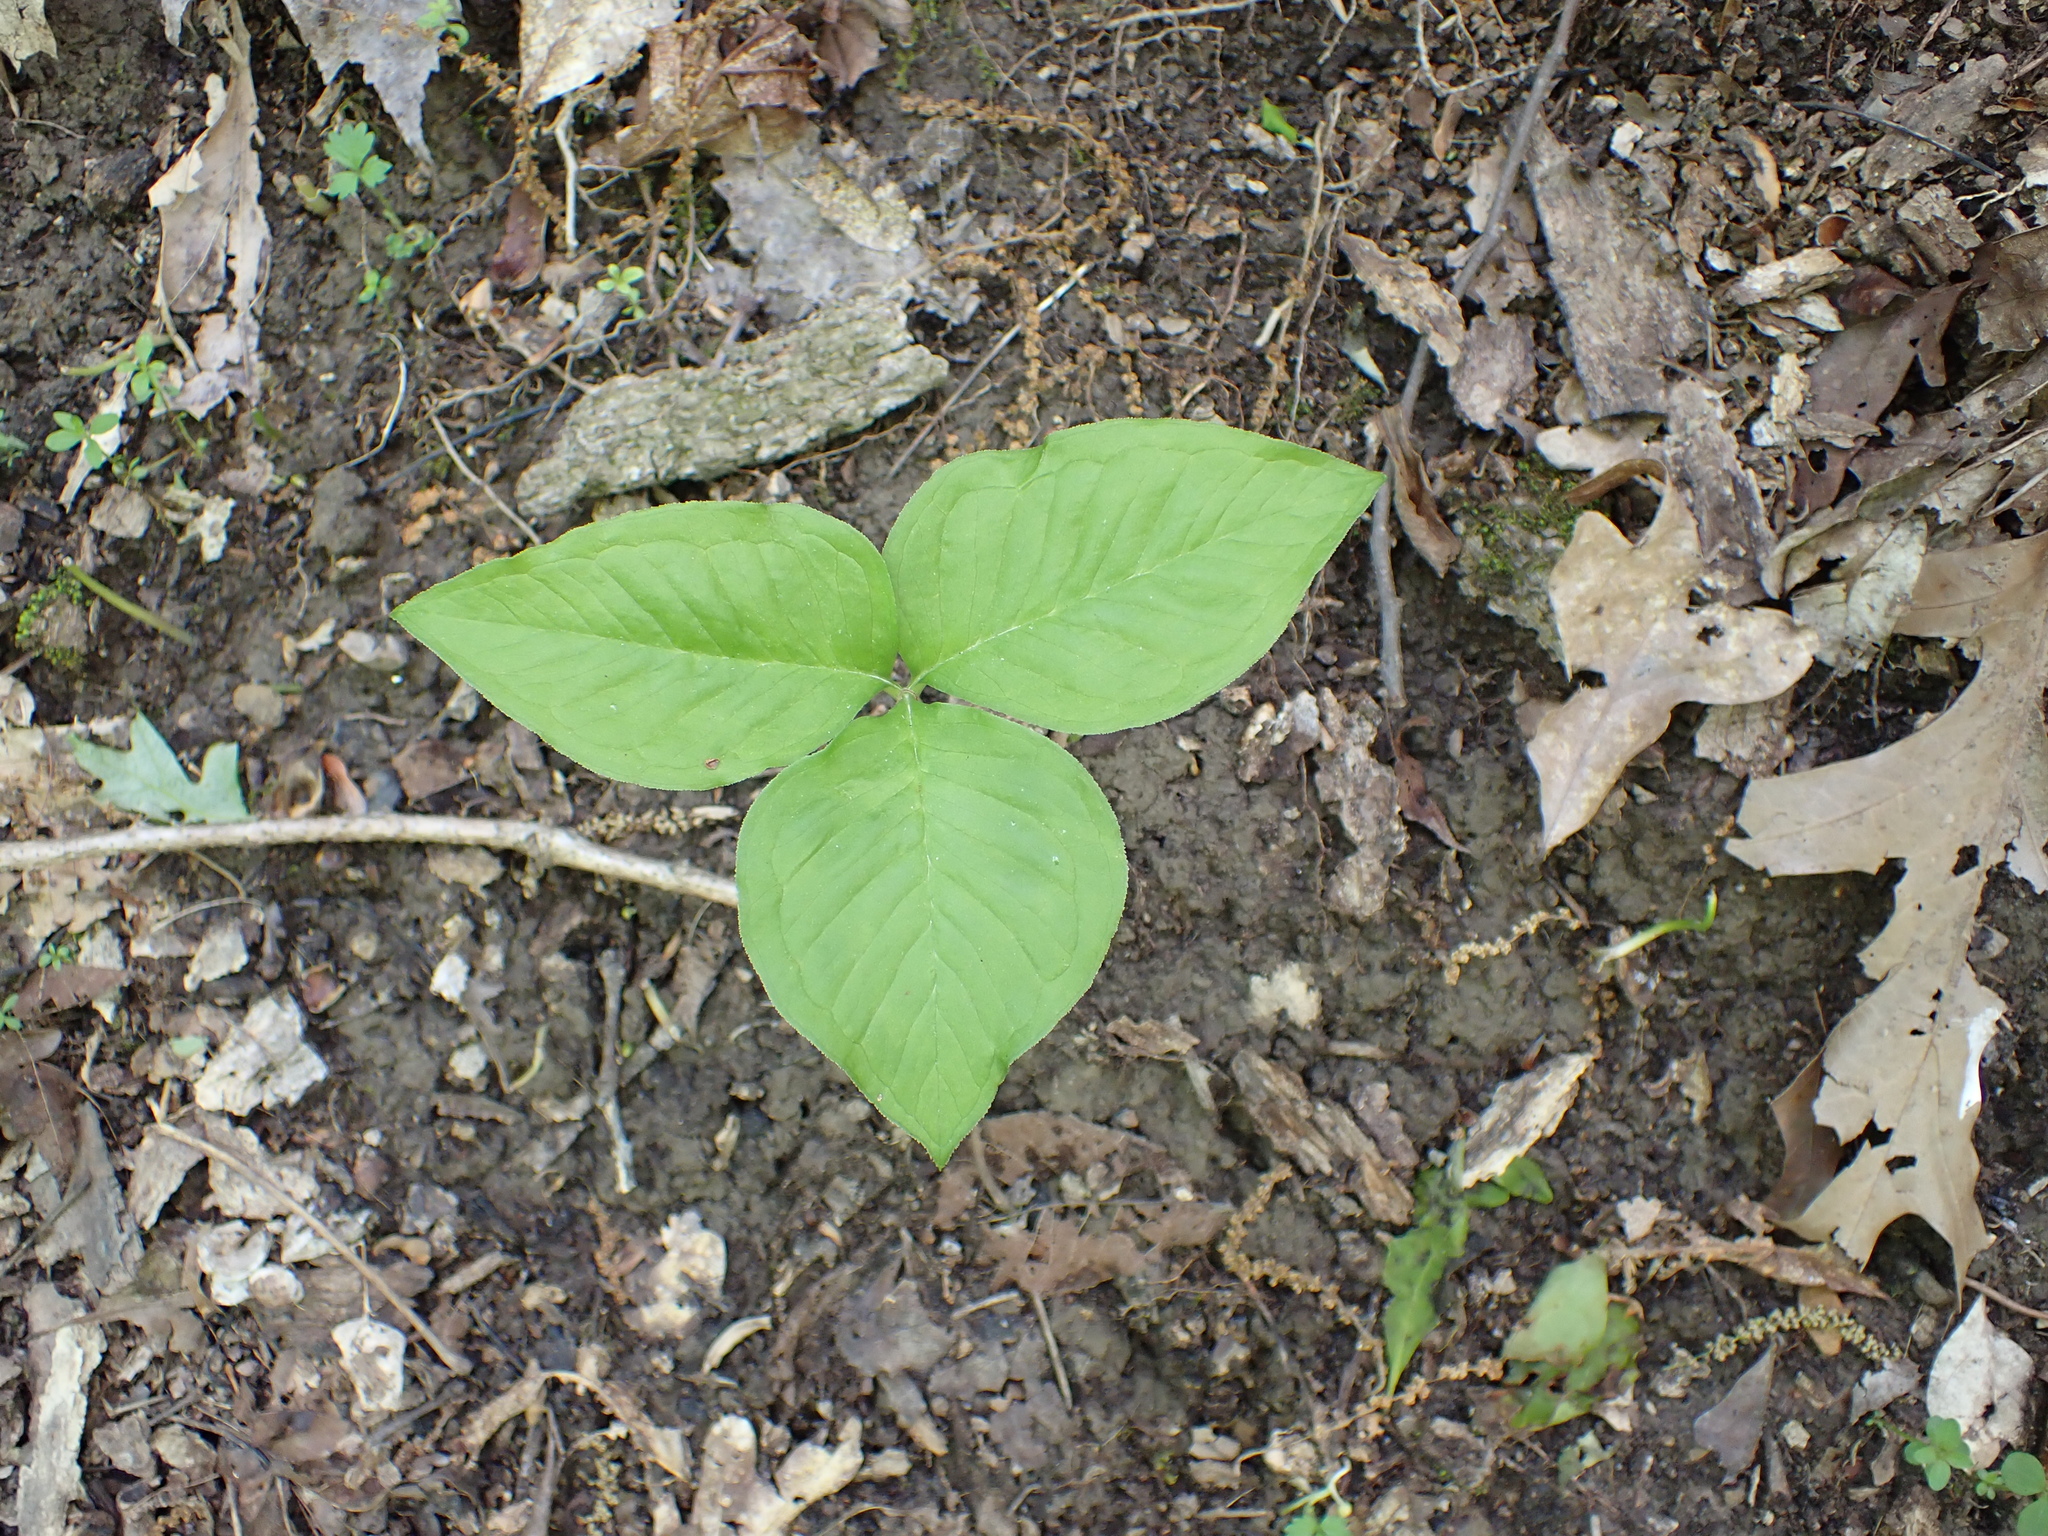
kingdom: Plantae
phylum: Tracheophyta
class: Liliopsida
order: Alismatales
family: Araceae
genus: Arisaema
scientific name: Arisaema triphyllum
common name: Jack-in-the-pulpit
